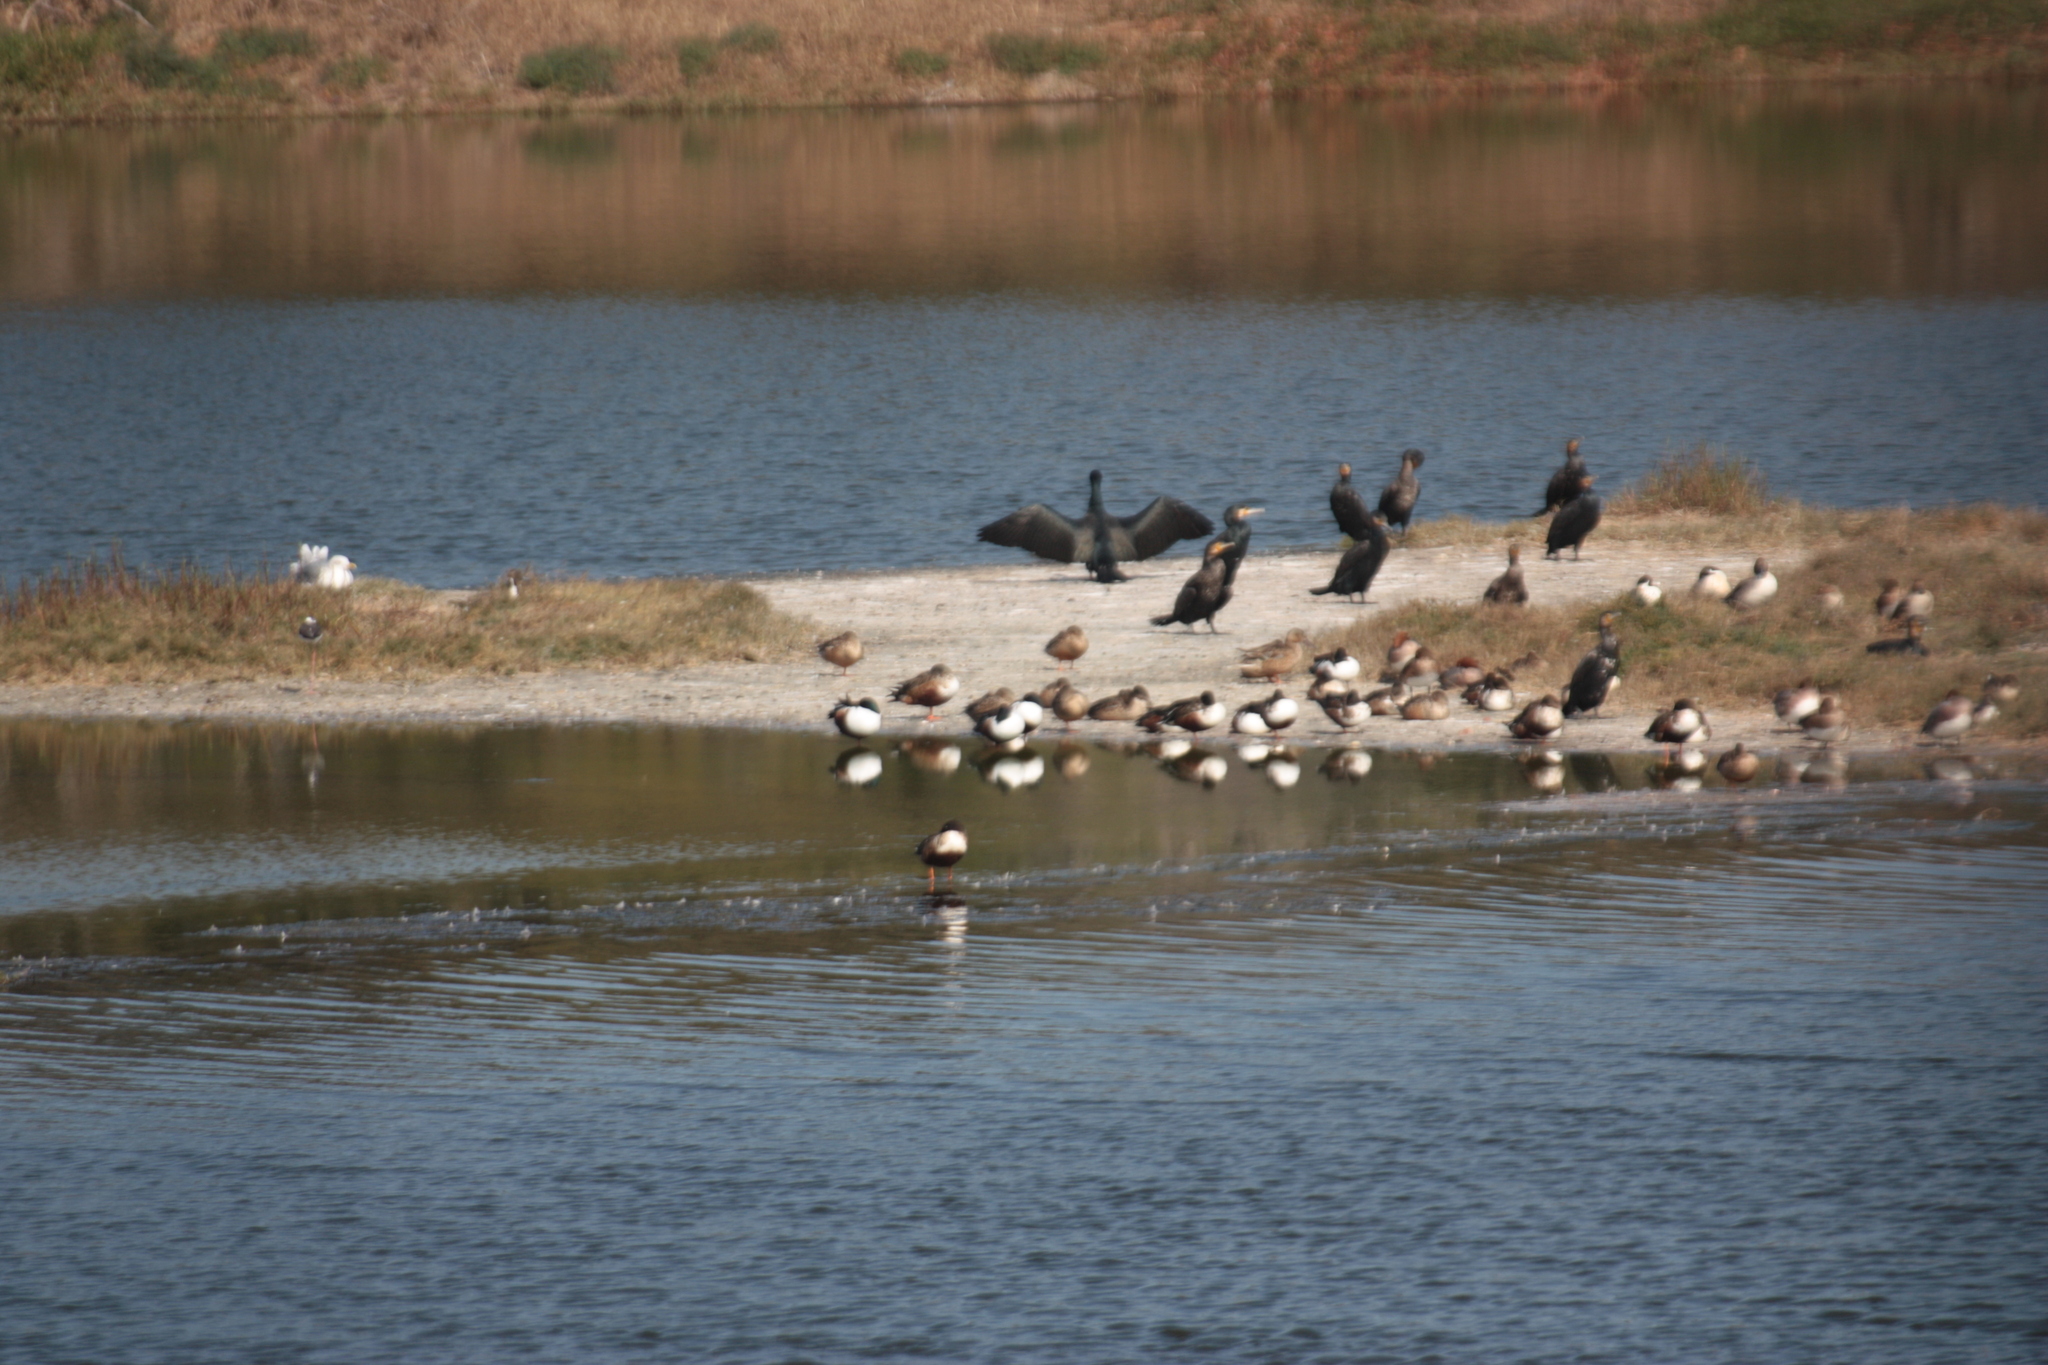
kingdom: Animalia
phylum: Chordata
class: Aves
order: Anseriformes
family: Anatidae
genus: Spatula
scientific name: Spatula clypeata
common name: Northern shoveler
